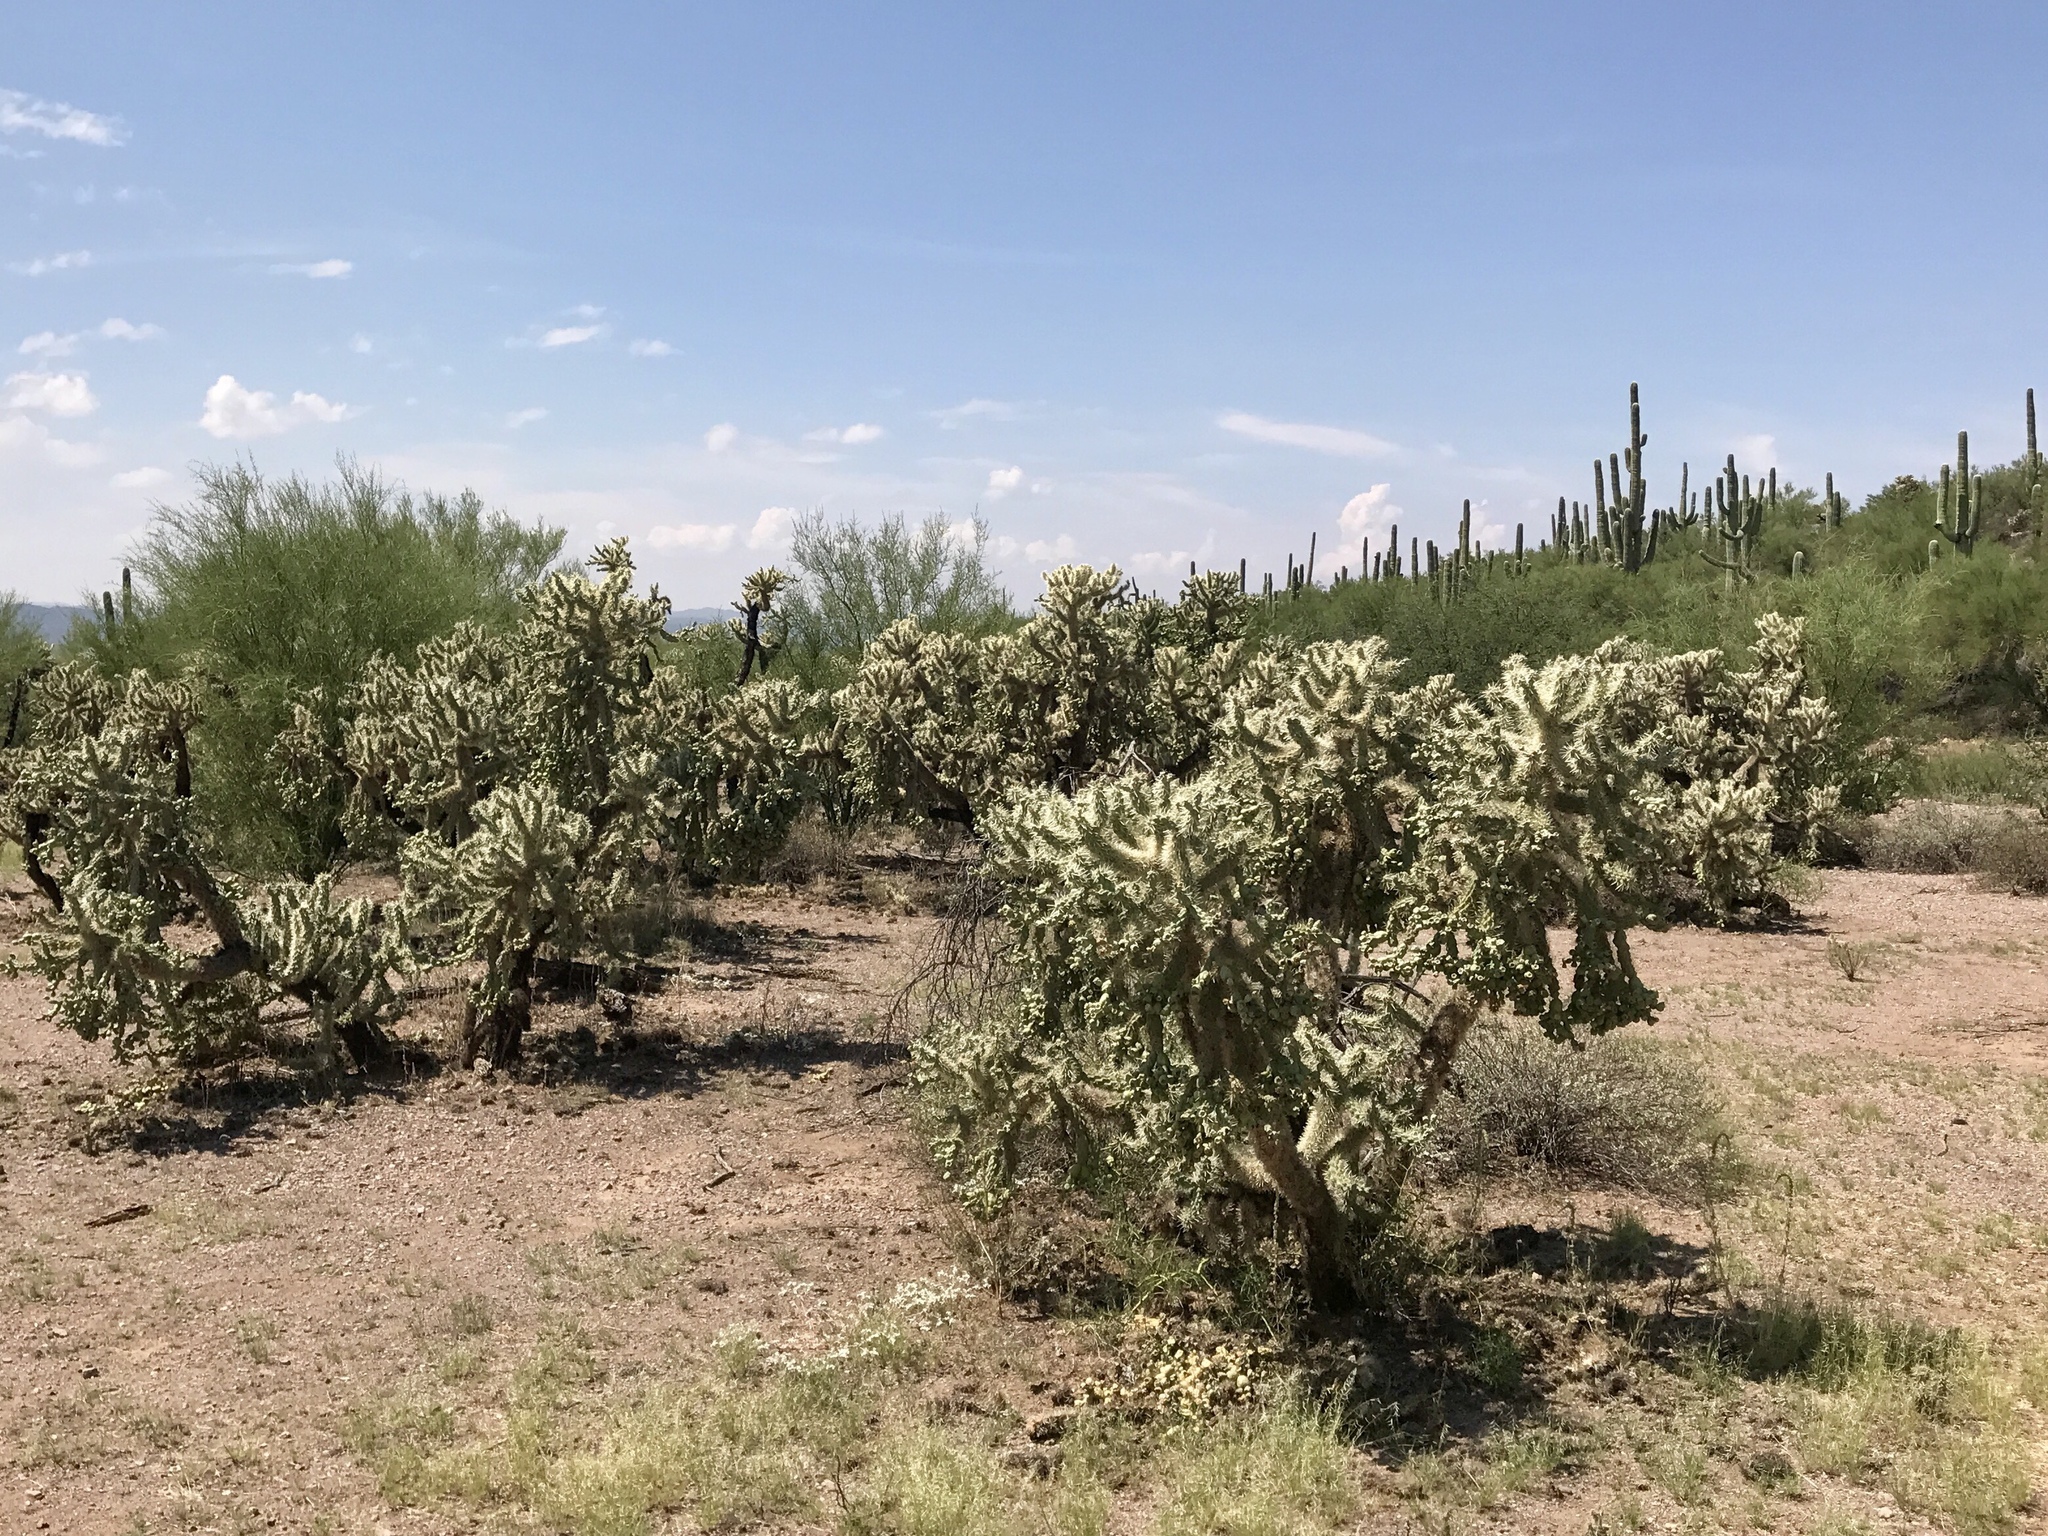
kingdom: Plantae
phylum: Tracheophyta
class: Magnoliopsida
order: Caryophyllales
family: Cactaceae
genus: Cylindropuntia
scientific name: Cylindropuntia fulgida
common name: Jumping cholla
